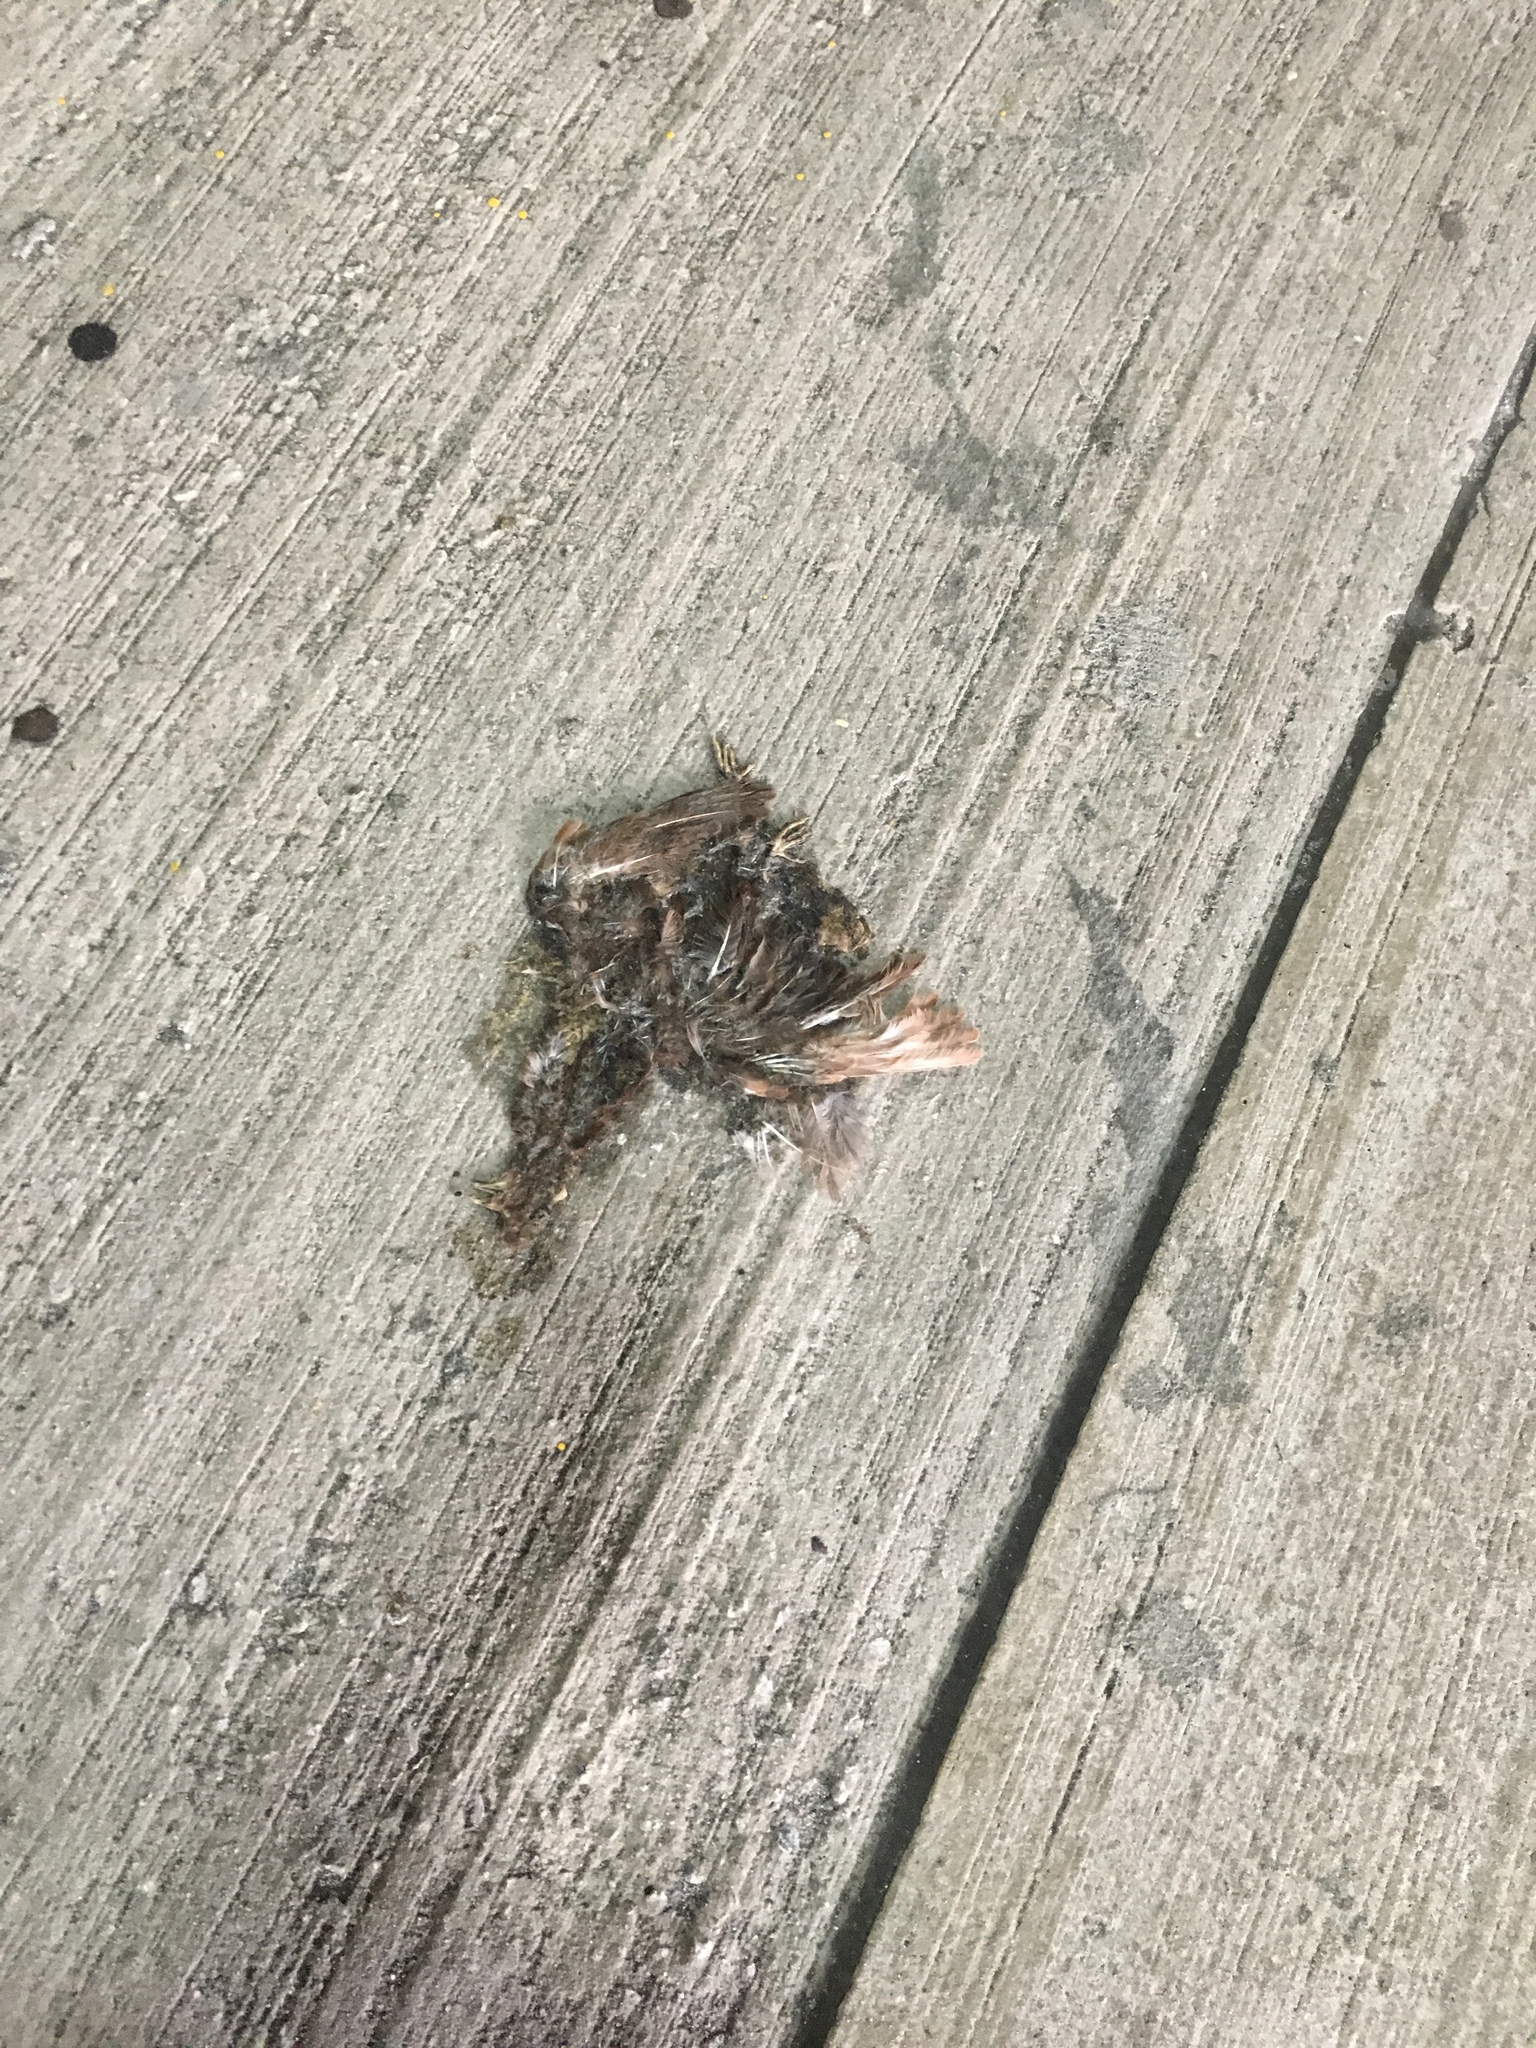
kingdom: Animalia
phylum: Chordata
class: Aves
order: Columbiformes
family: Columbidae
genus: Columba
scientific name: Columba livia
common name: Rock pigeon
